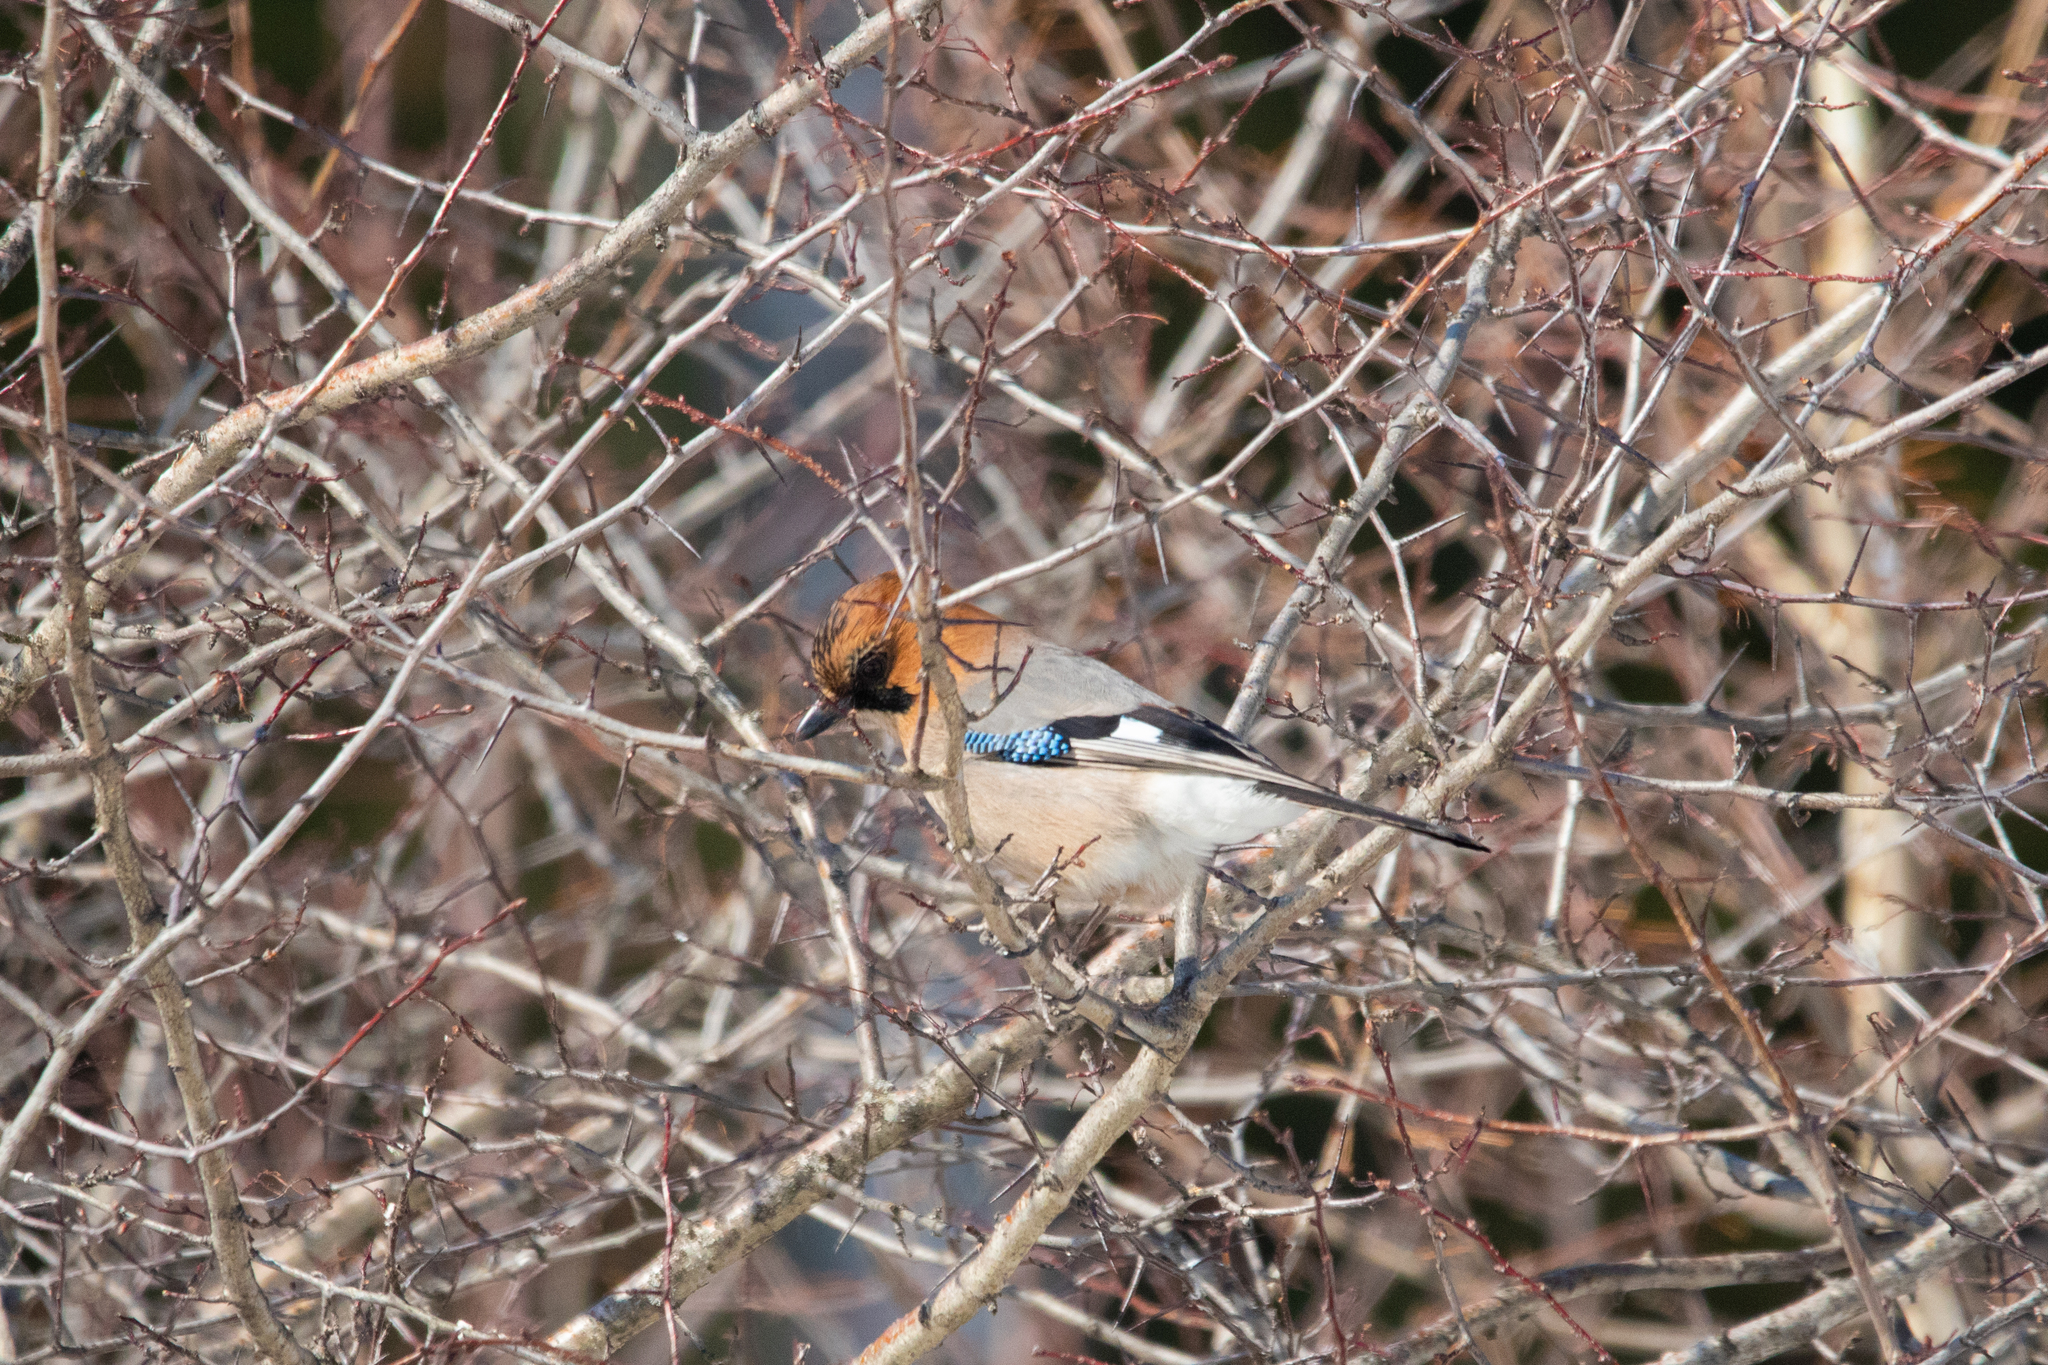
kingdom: Animalia
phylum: Chordata
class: Aves
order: Passeriformes
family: Corvidae
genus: Garrulus
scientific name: Garrulus glandarius
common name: Eurasian jay
